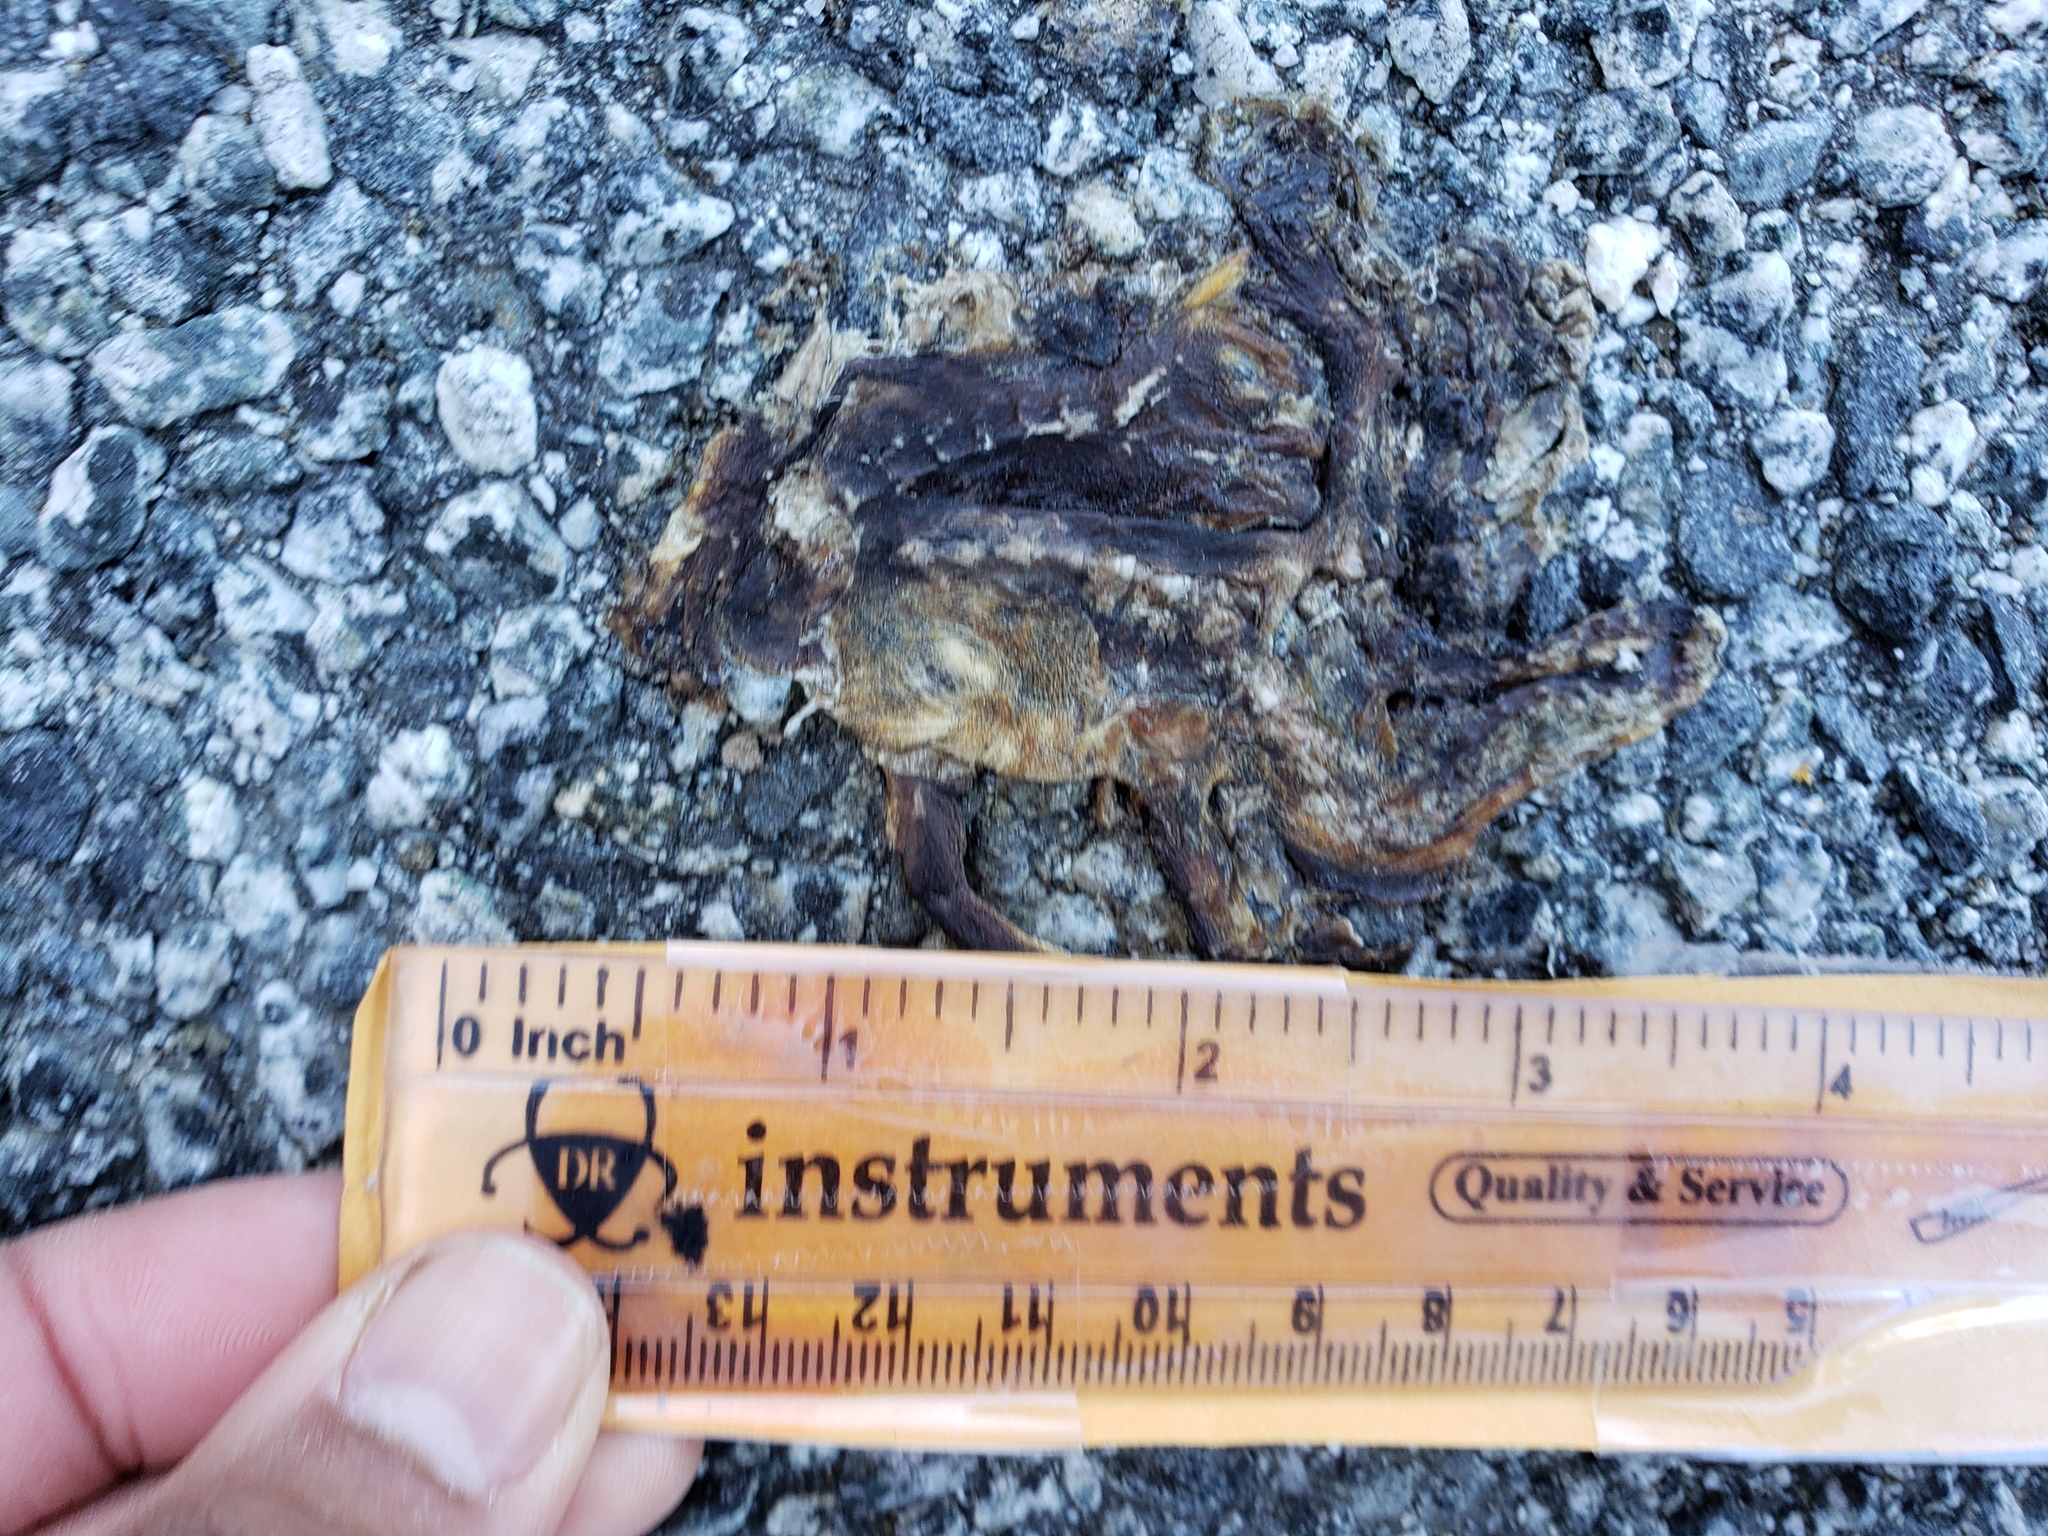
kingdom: Animalia
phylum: Chordata
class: Amphibia
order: Caudata
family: Salamandridae
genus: Taricha
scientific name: Taricha
